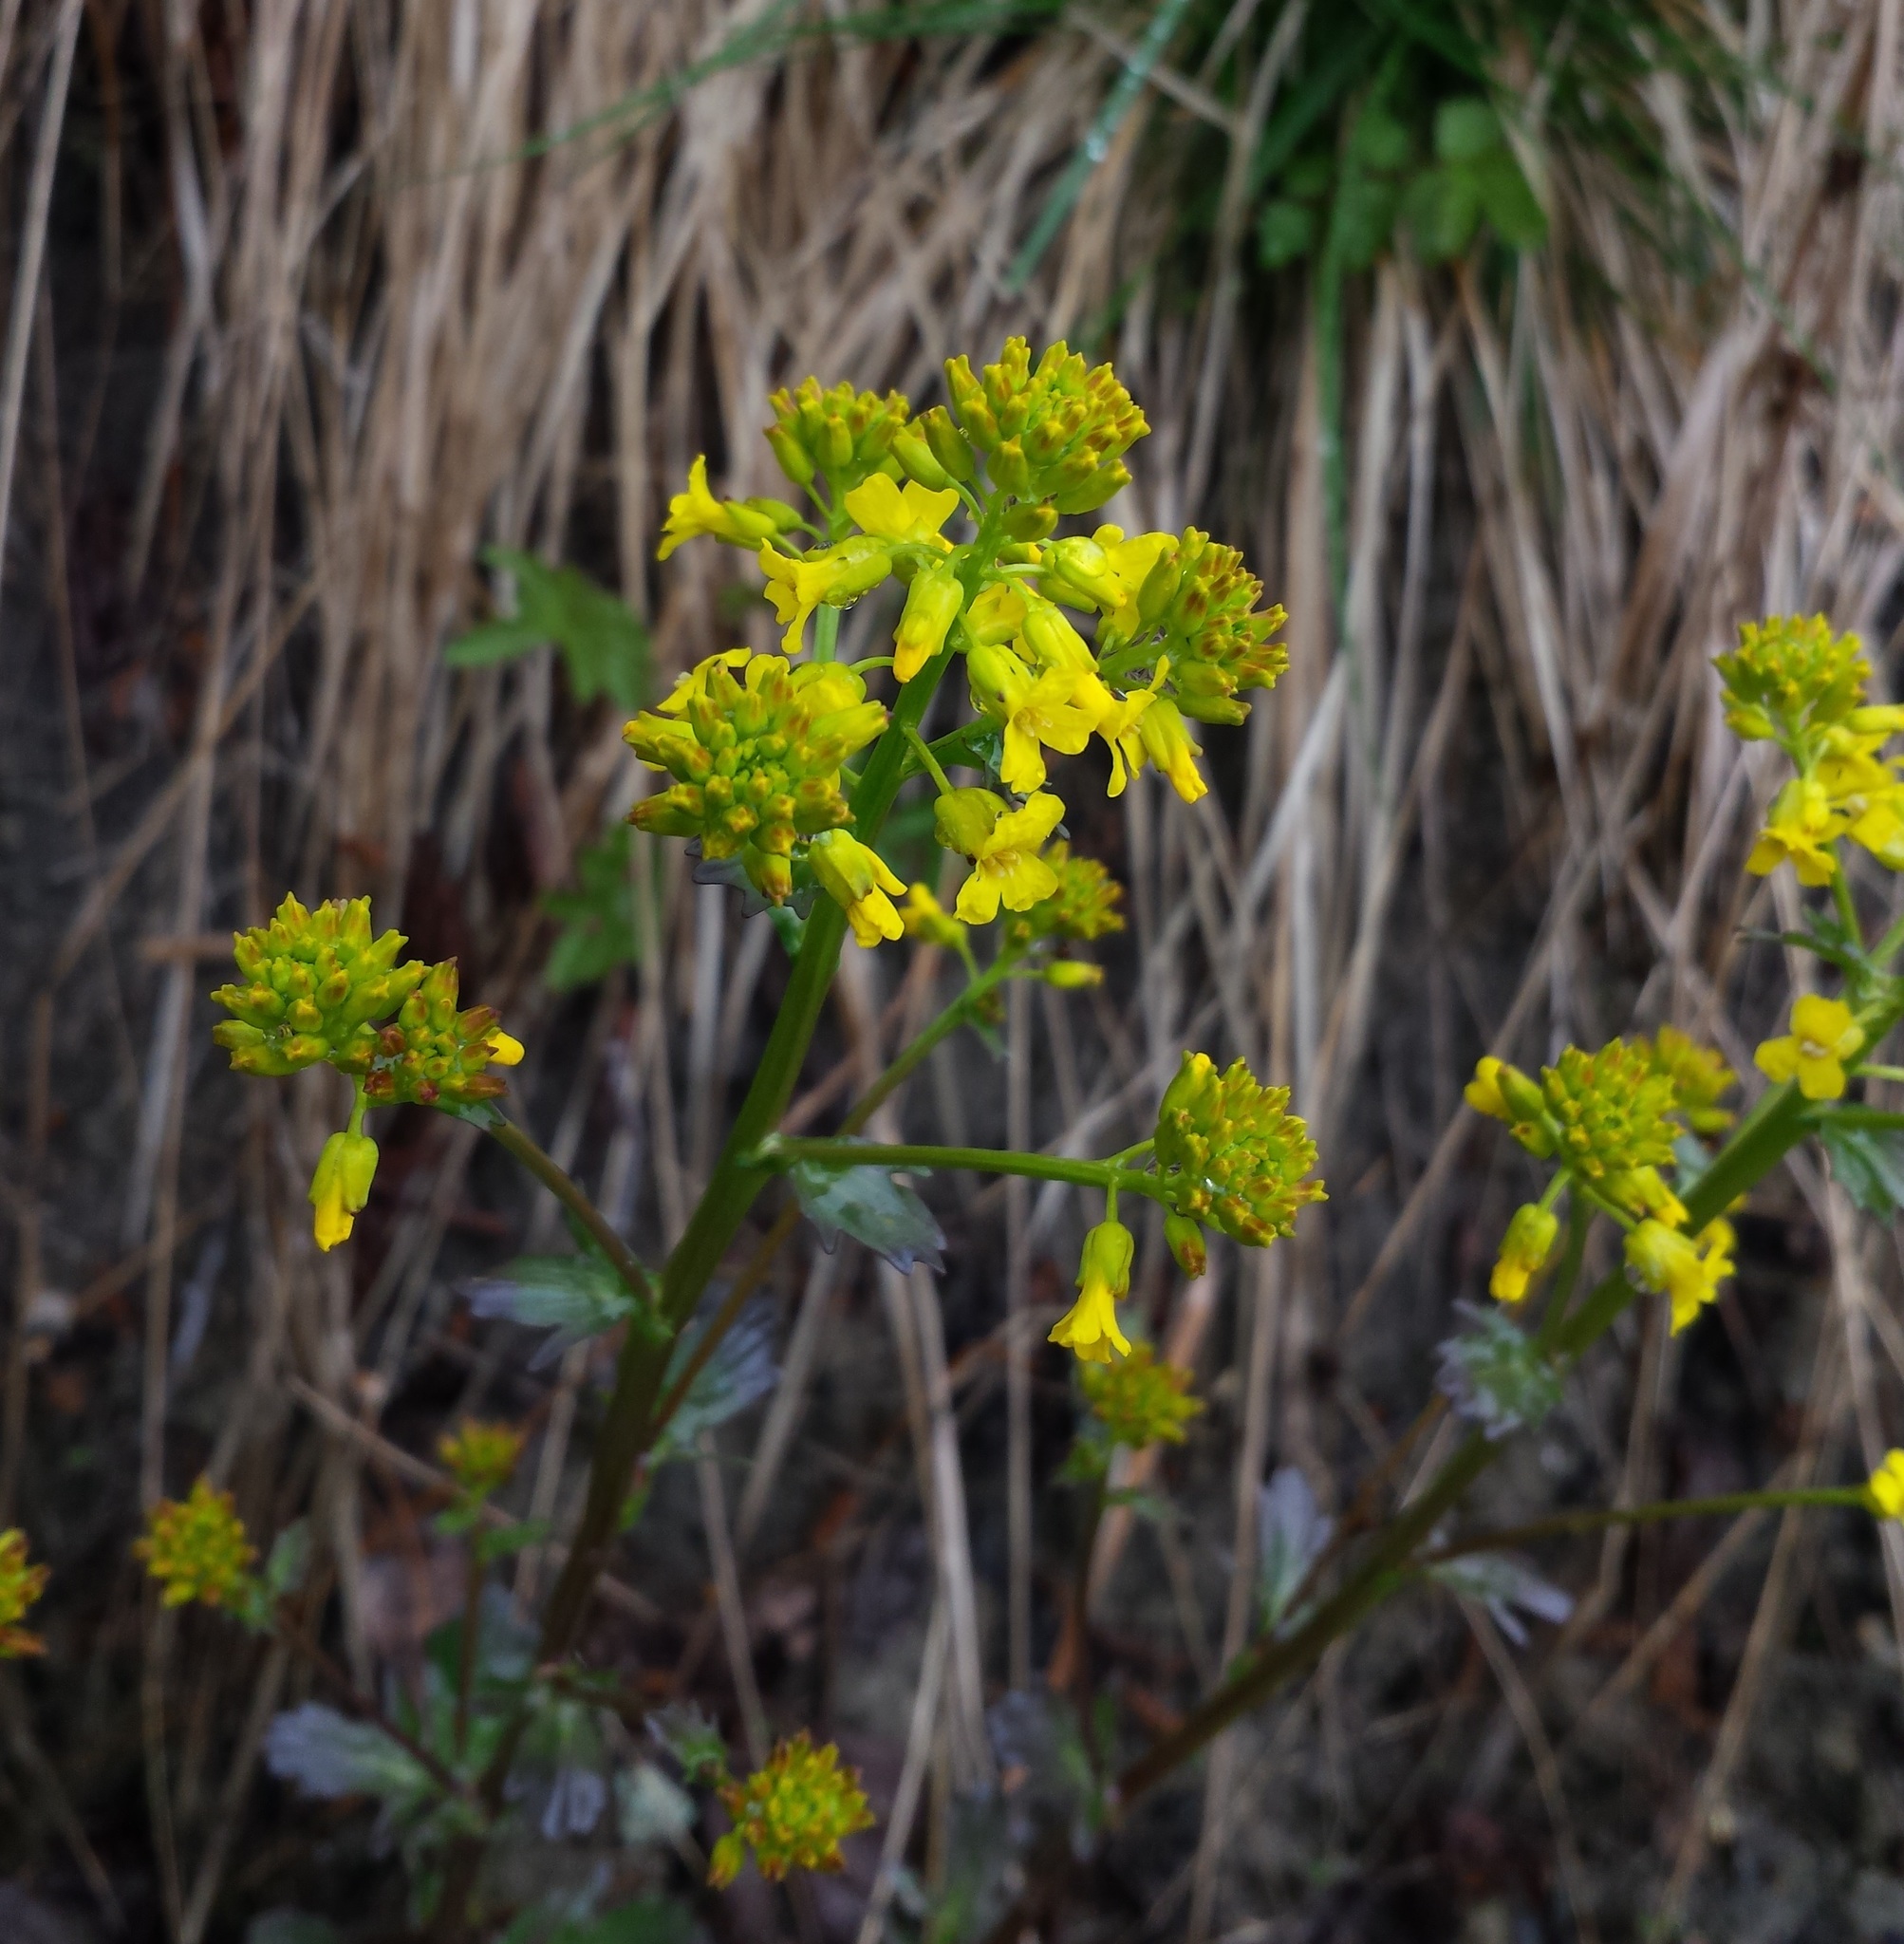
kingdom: Plantae
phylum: Tracheophyta
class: Magnoliopsida
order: Brassicales
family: Brassicaceae
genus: Barbarea
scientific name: Barbarea vulgaris
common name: Cressy-greens
